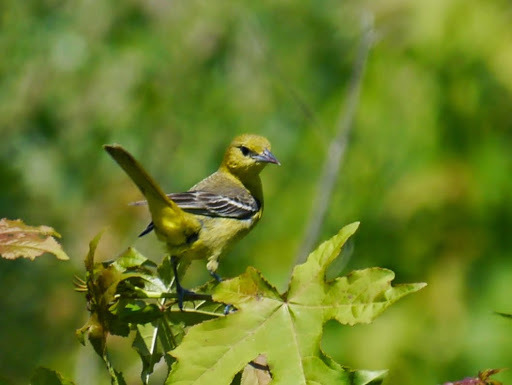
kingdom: Animalia
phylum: Chordata
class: Aves
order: Passeriformes
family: Icteridae
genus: Icterus
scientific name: Icterus spurius
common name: Orchard oriole
